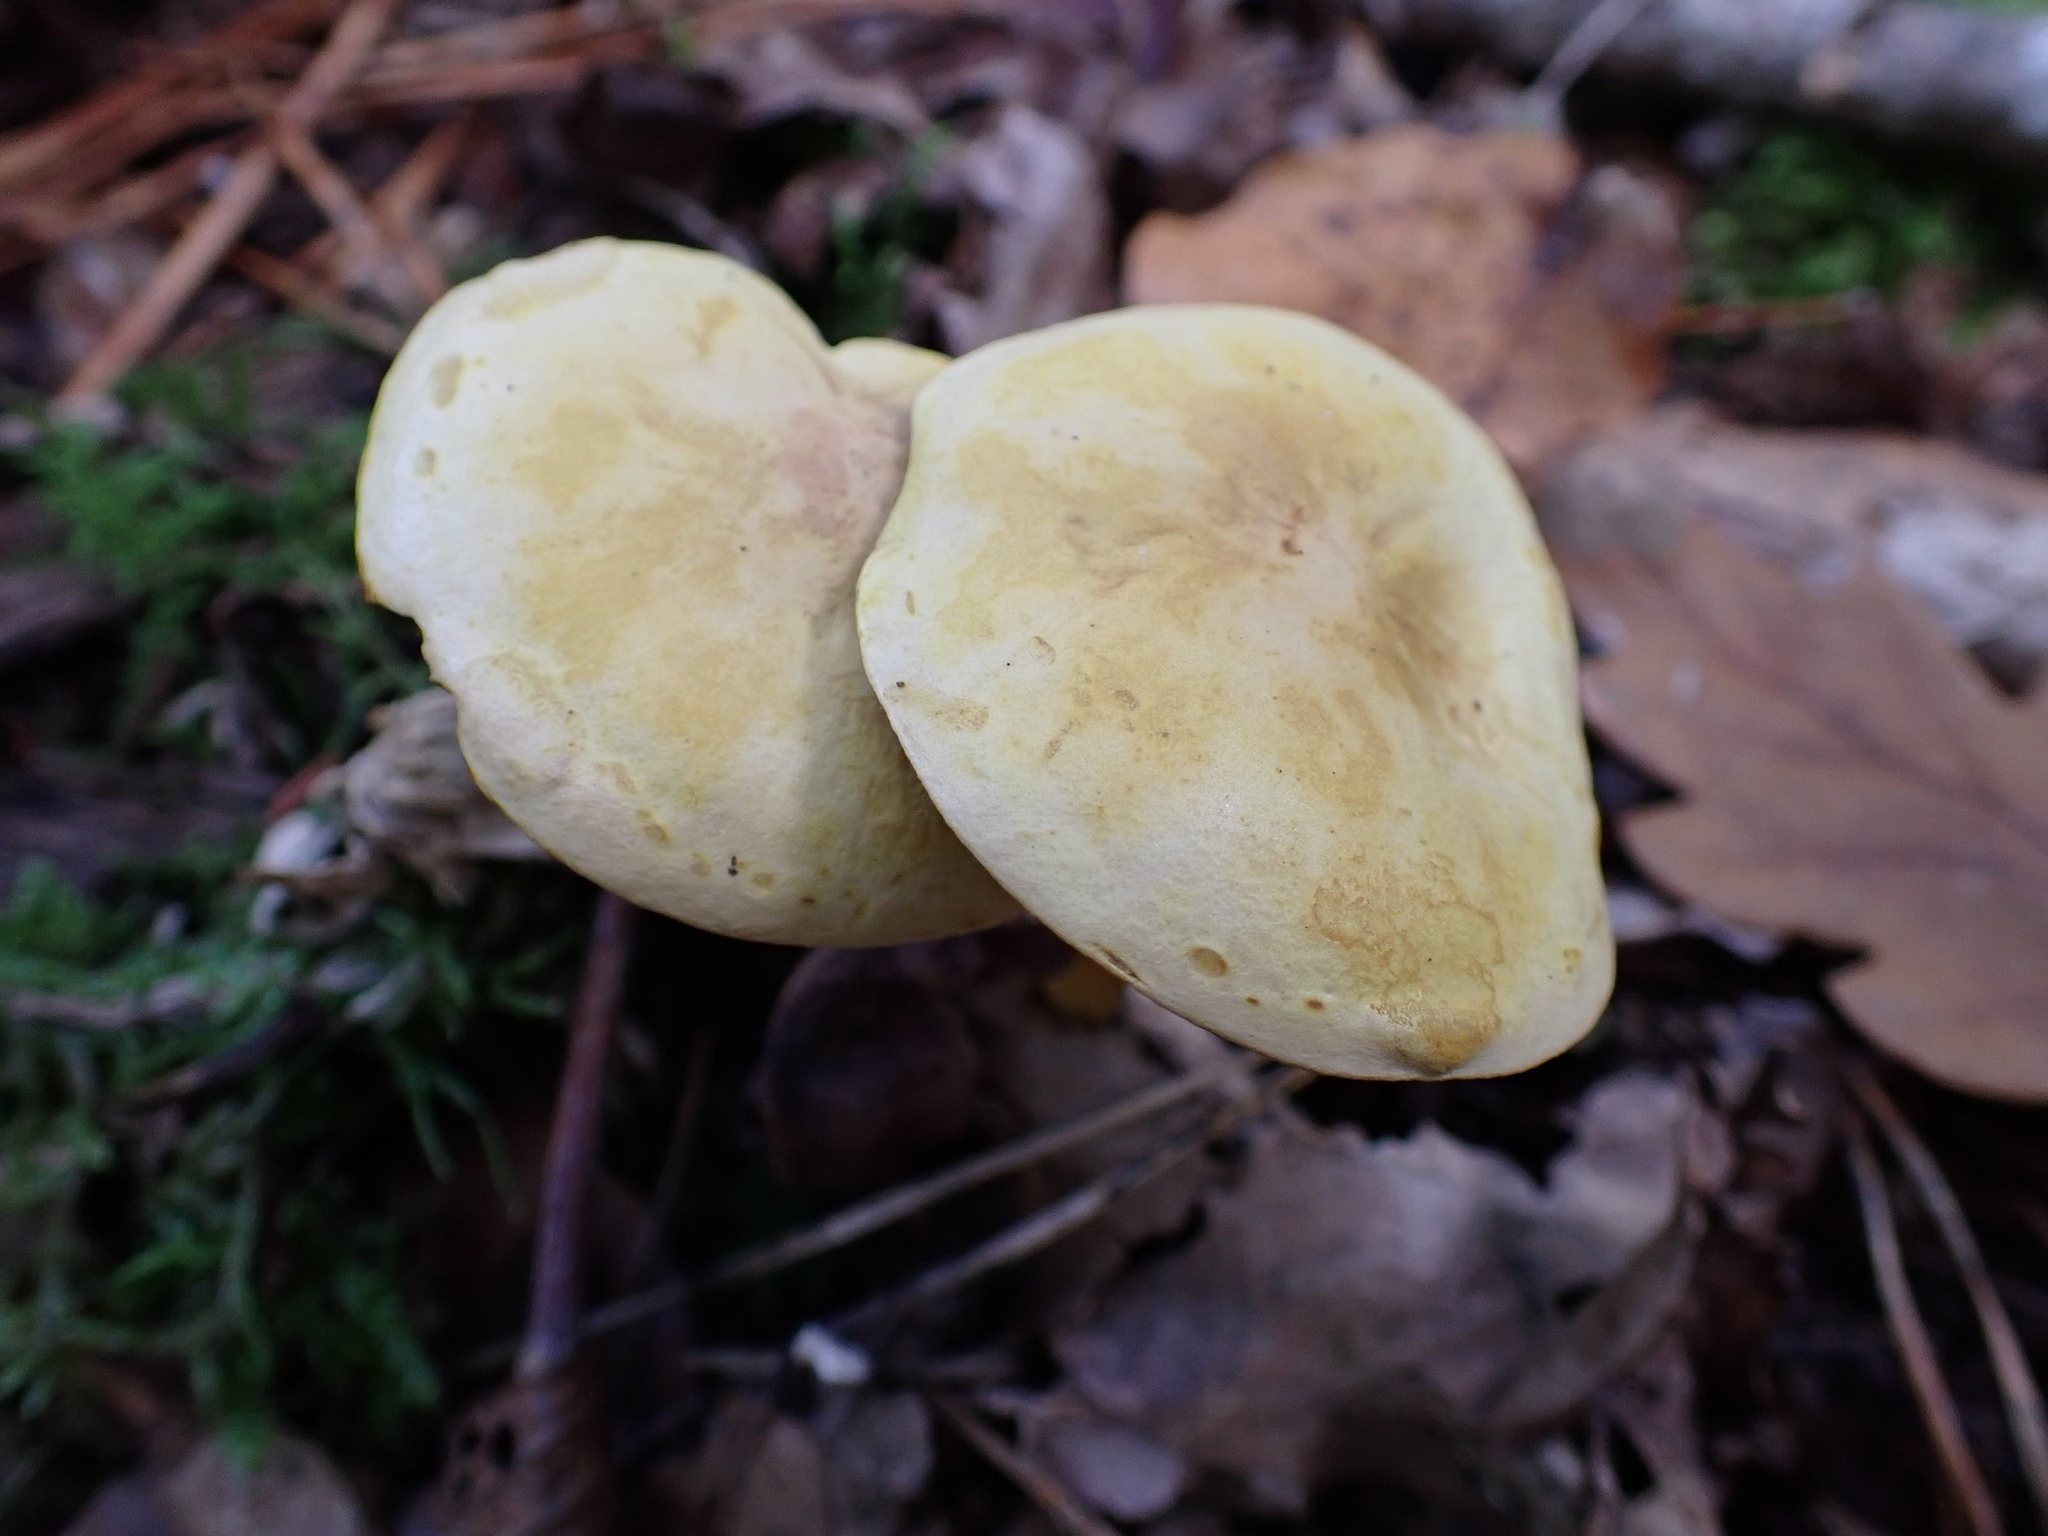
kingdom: Fungi
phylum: Basidiomycota
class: Agaricomycetes
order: Agaricales
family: Tricholomataceae
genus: Tricholoma
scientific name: Tricholoma sulphureum
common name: Stinky knight
